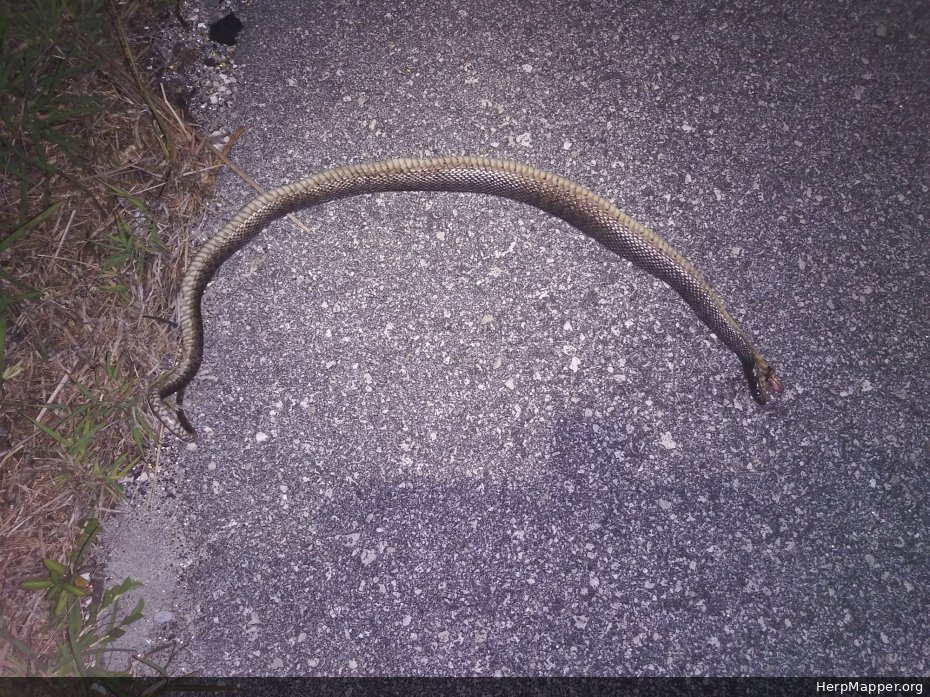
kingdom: Animalia
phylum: Chordata
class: Squamata
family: Colubridae
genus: Nerodia
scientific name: Nerodia floridana
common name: Florida green watersnake
